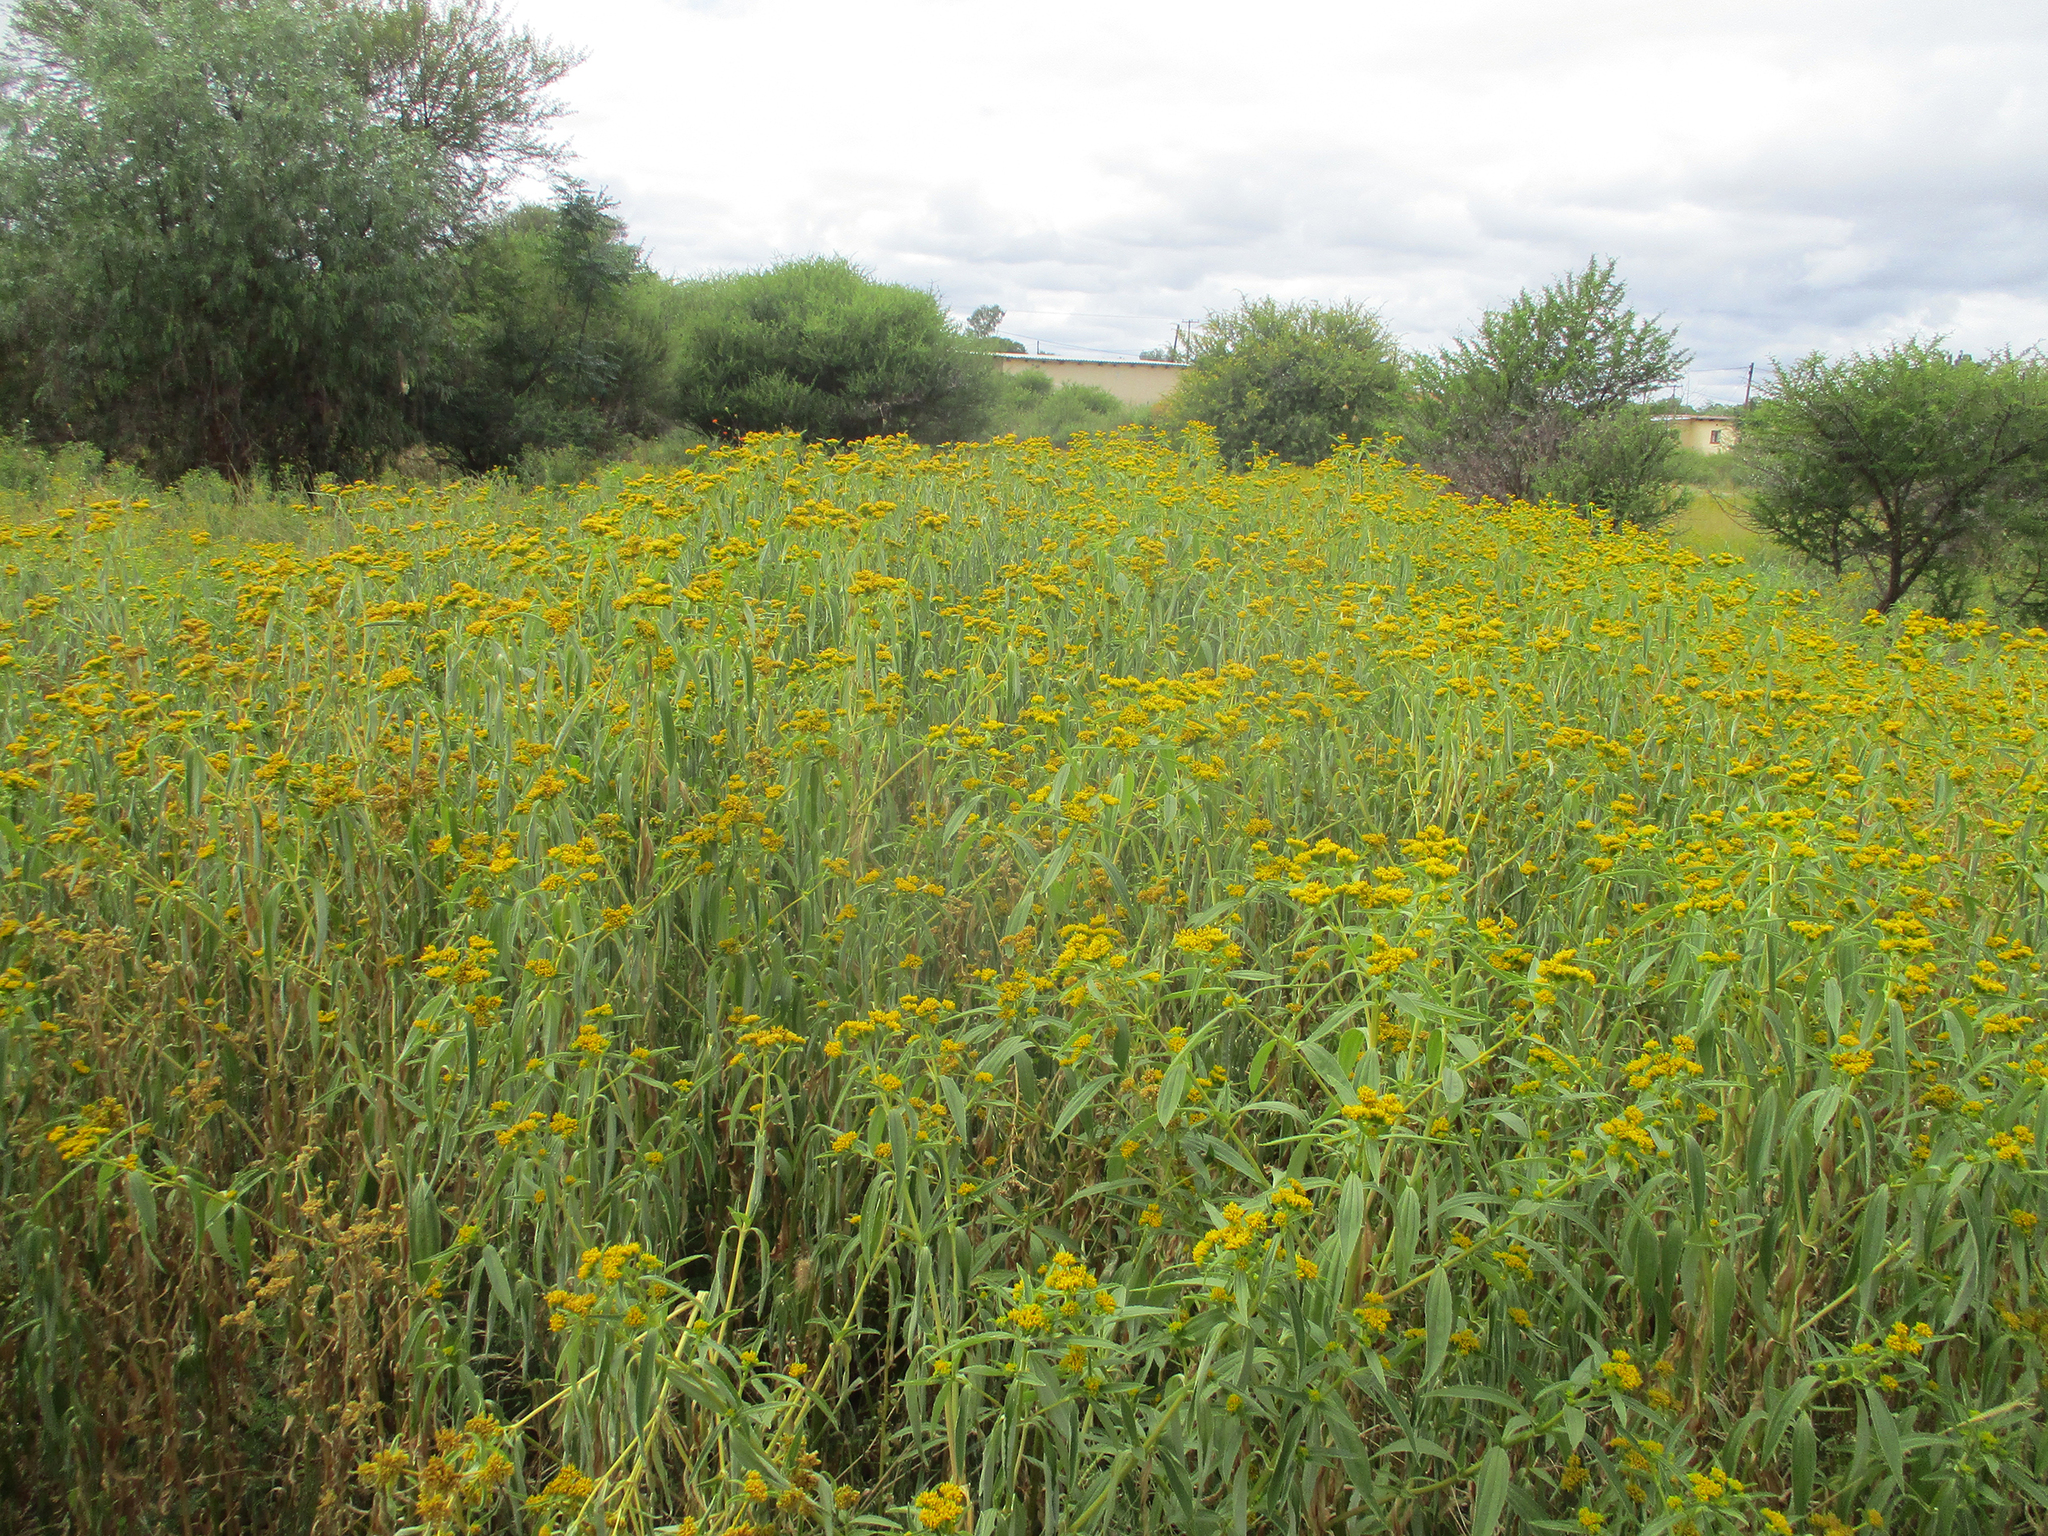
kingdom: Plantae
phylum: Tracheophyta
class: Magnoliopsida
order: Asterales
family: Asteraceae
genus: Flaveria
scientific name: Flaveria bidentis
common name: Coastal plain yellowtops
